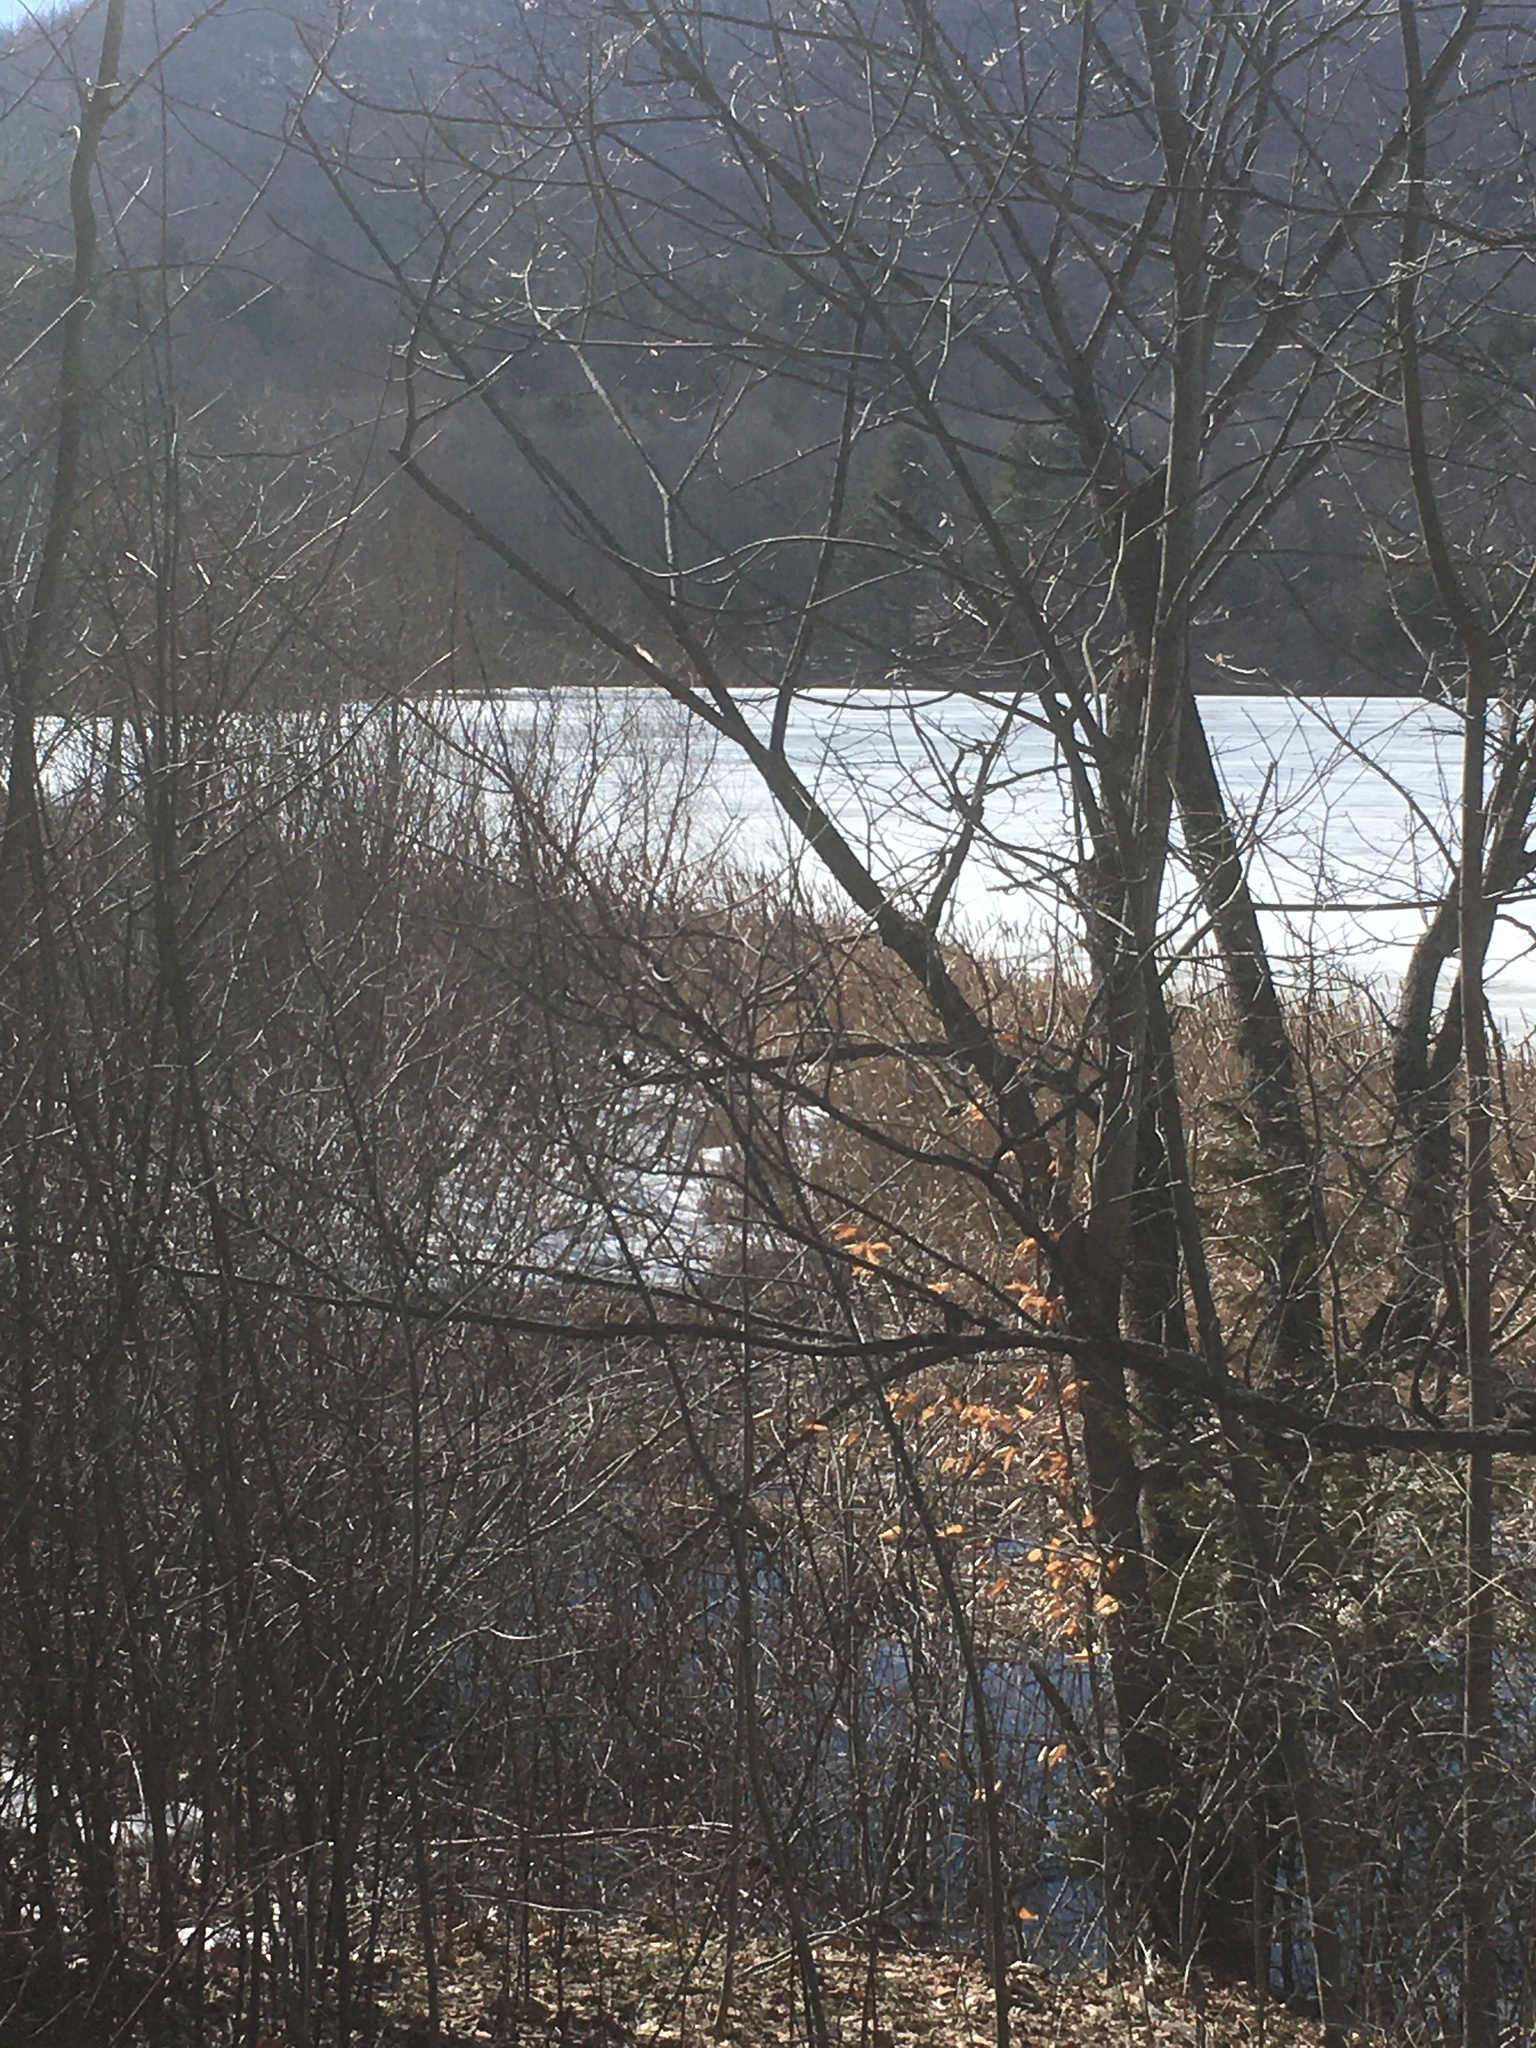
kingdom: Plantae
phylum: Tracheophyta
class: Liliopsida
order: Poales
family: Typhaceae
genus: Typha
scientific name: Typha
